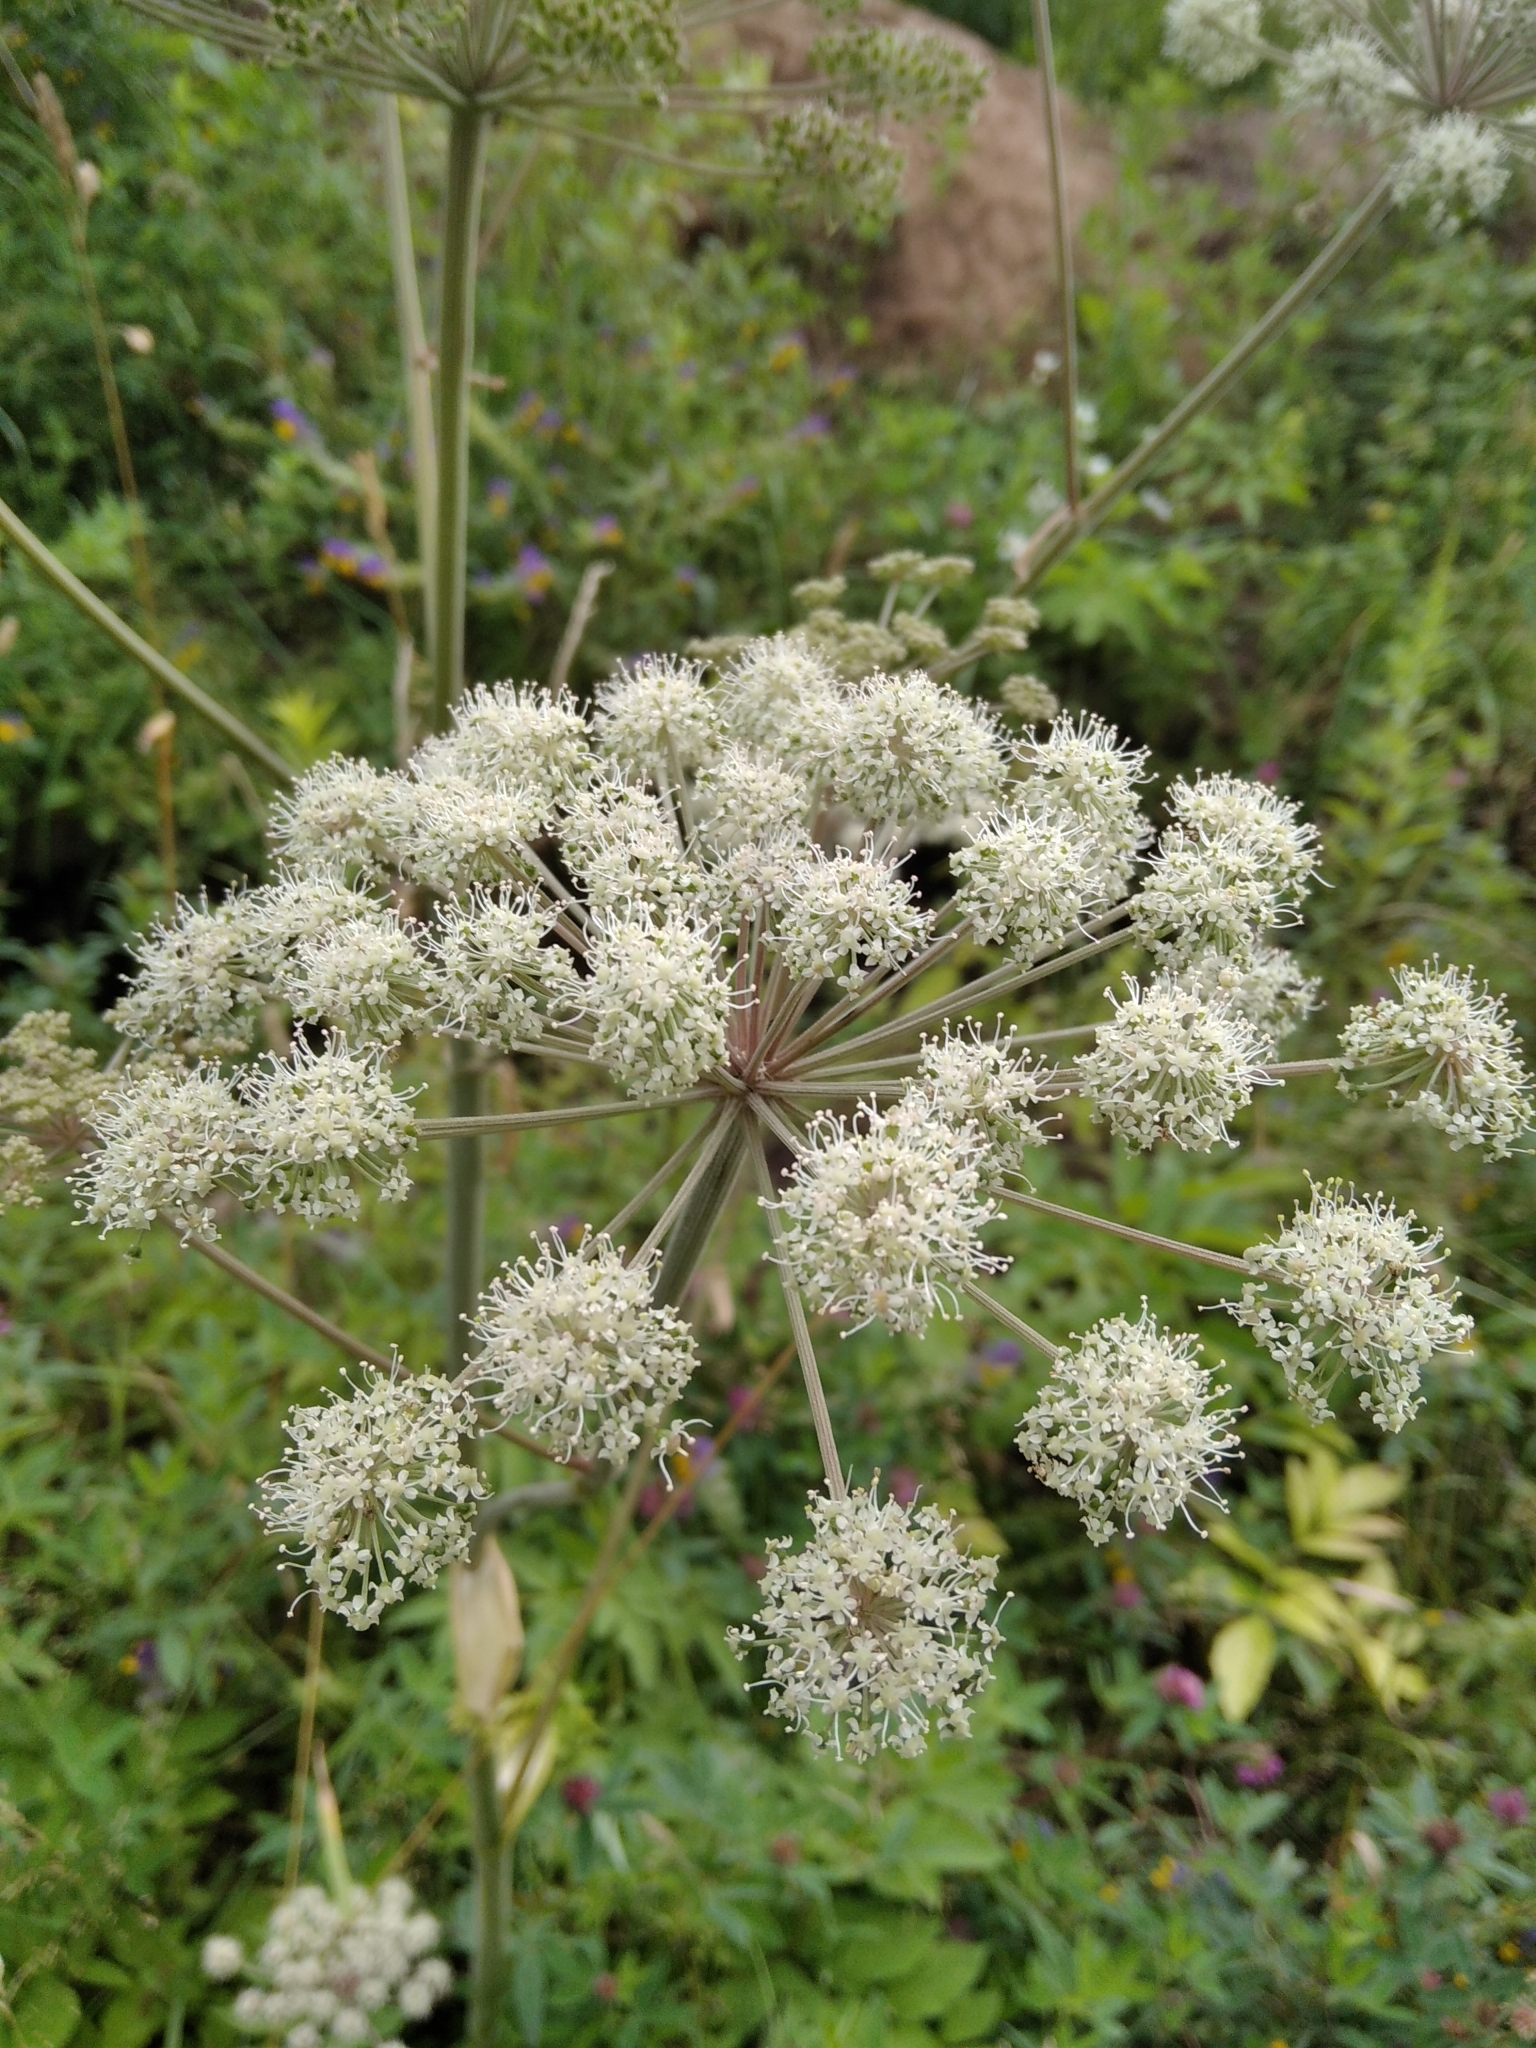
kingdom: Plantae
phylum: Tracheophyta
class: Magnoliopsida
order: Apiales
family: Apiaceae
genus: Angelica
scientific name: Angelica sylvestris
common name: Wild angelica
